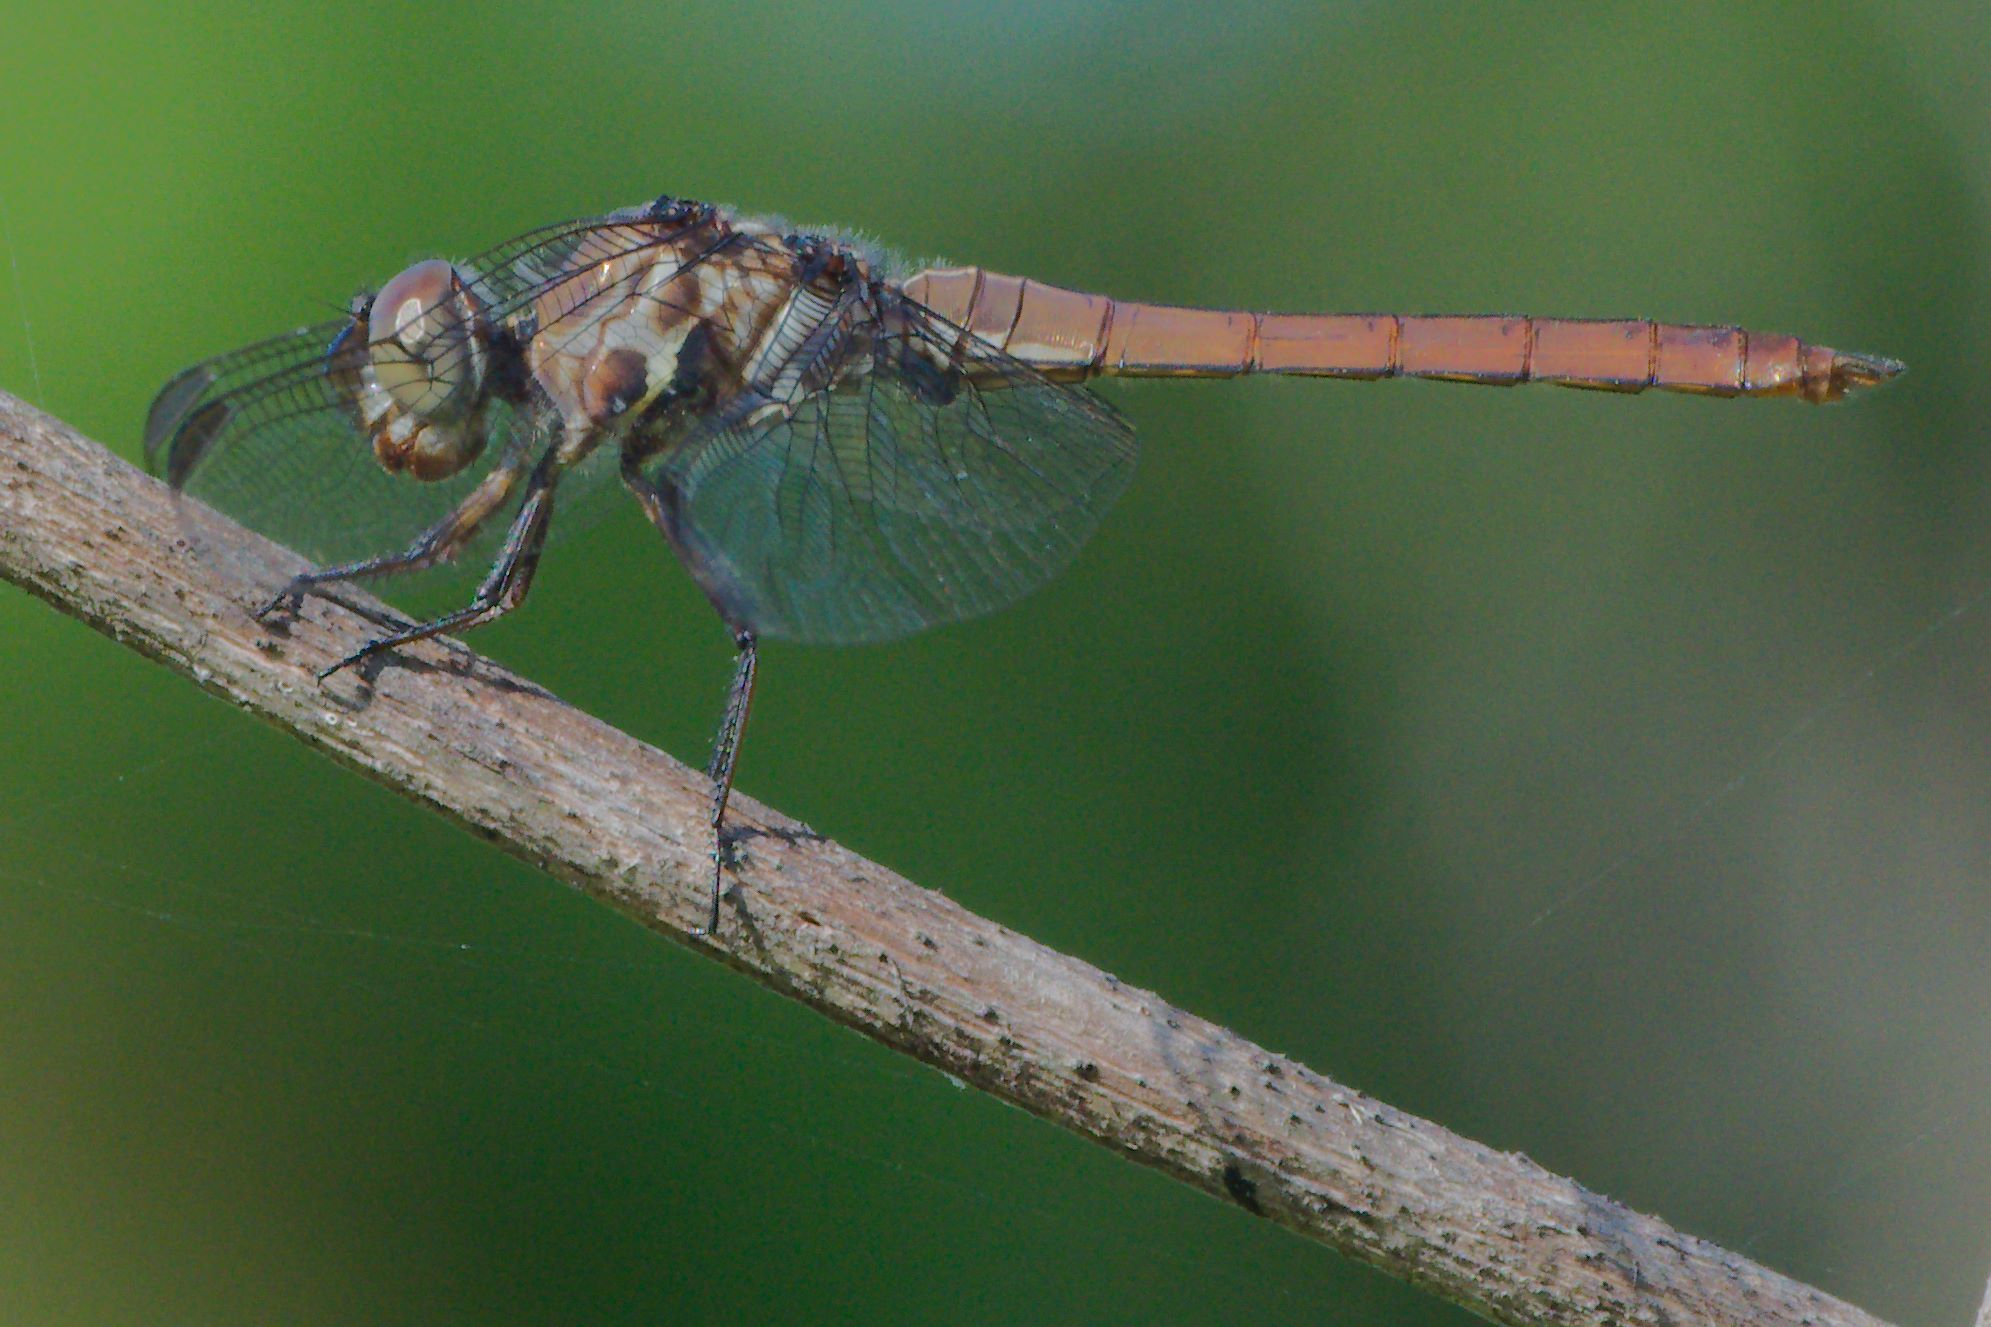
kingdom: Animalia
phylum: Arthropoda
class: Insecta
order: Odonata
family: Libellulidae
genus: Orthemis
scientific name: Orthemis ferruginea
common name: Roseate skimmer
